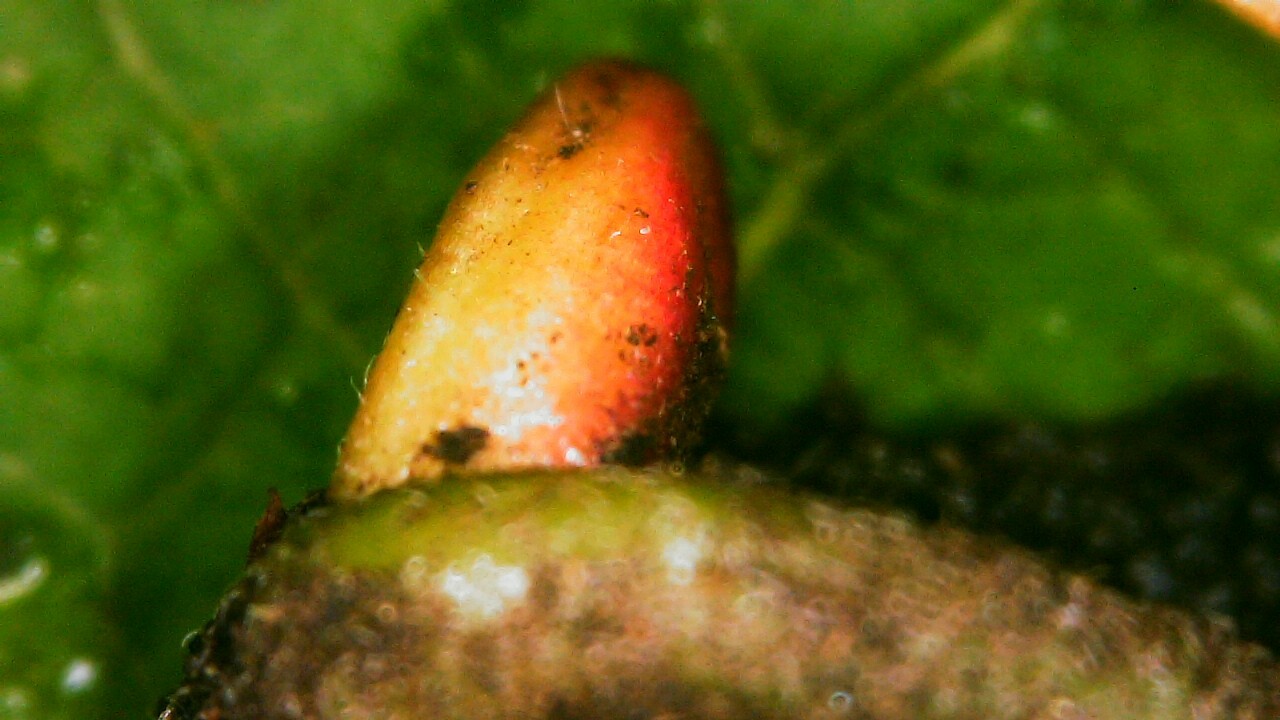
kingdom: Plantae
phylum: Tracheophyta
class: Magnoliopsida
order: Malpighiales
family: Salicaceae
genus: Salix
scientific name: Salix bebbiana
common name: Bebb's willow
